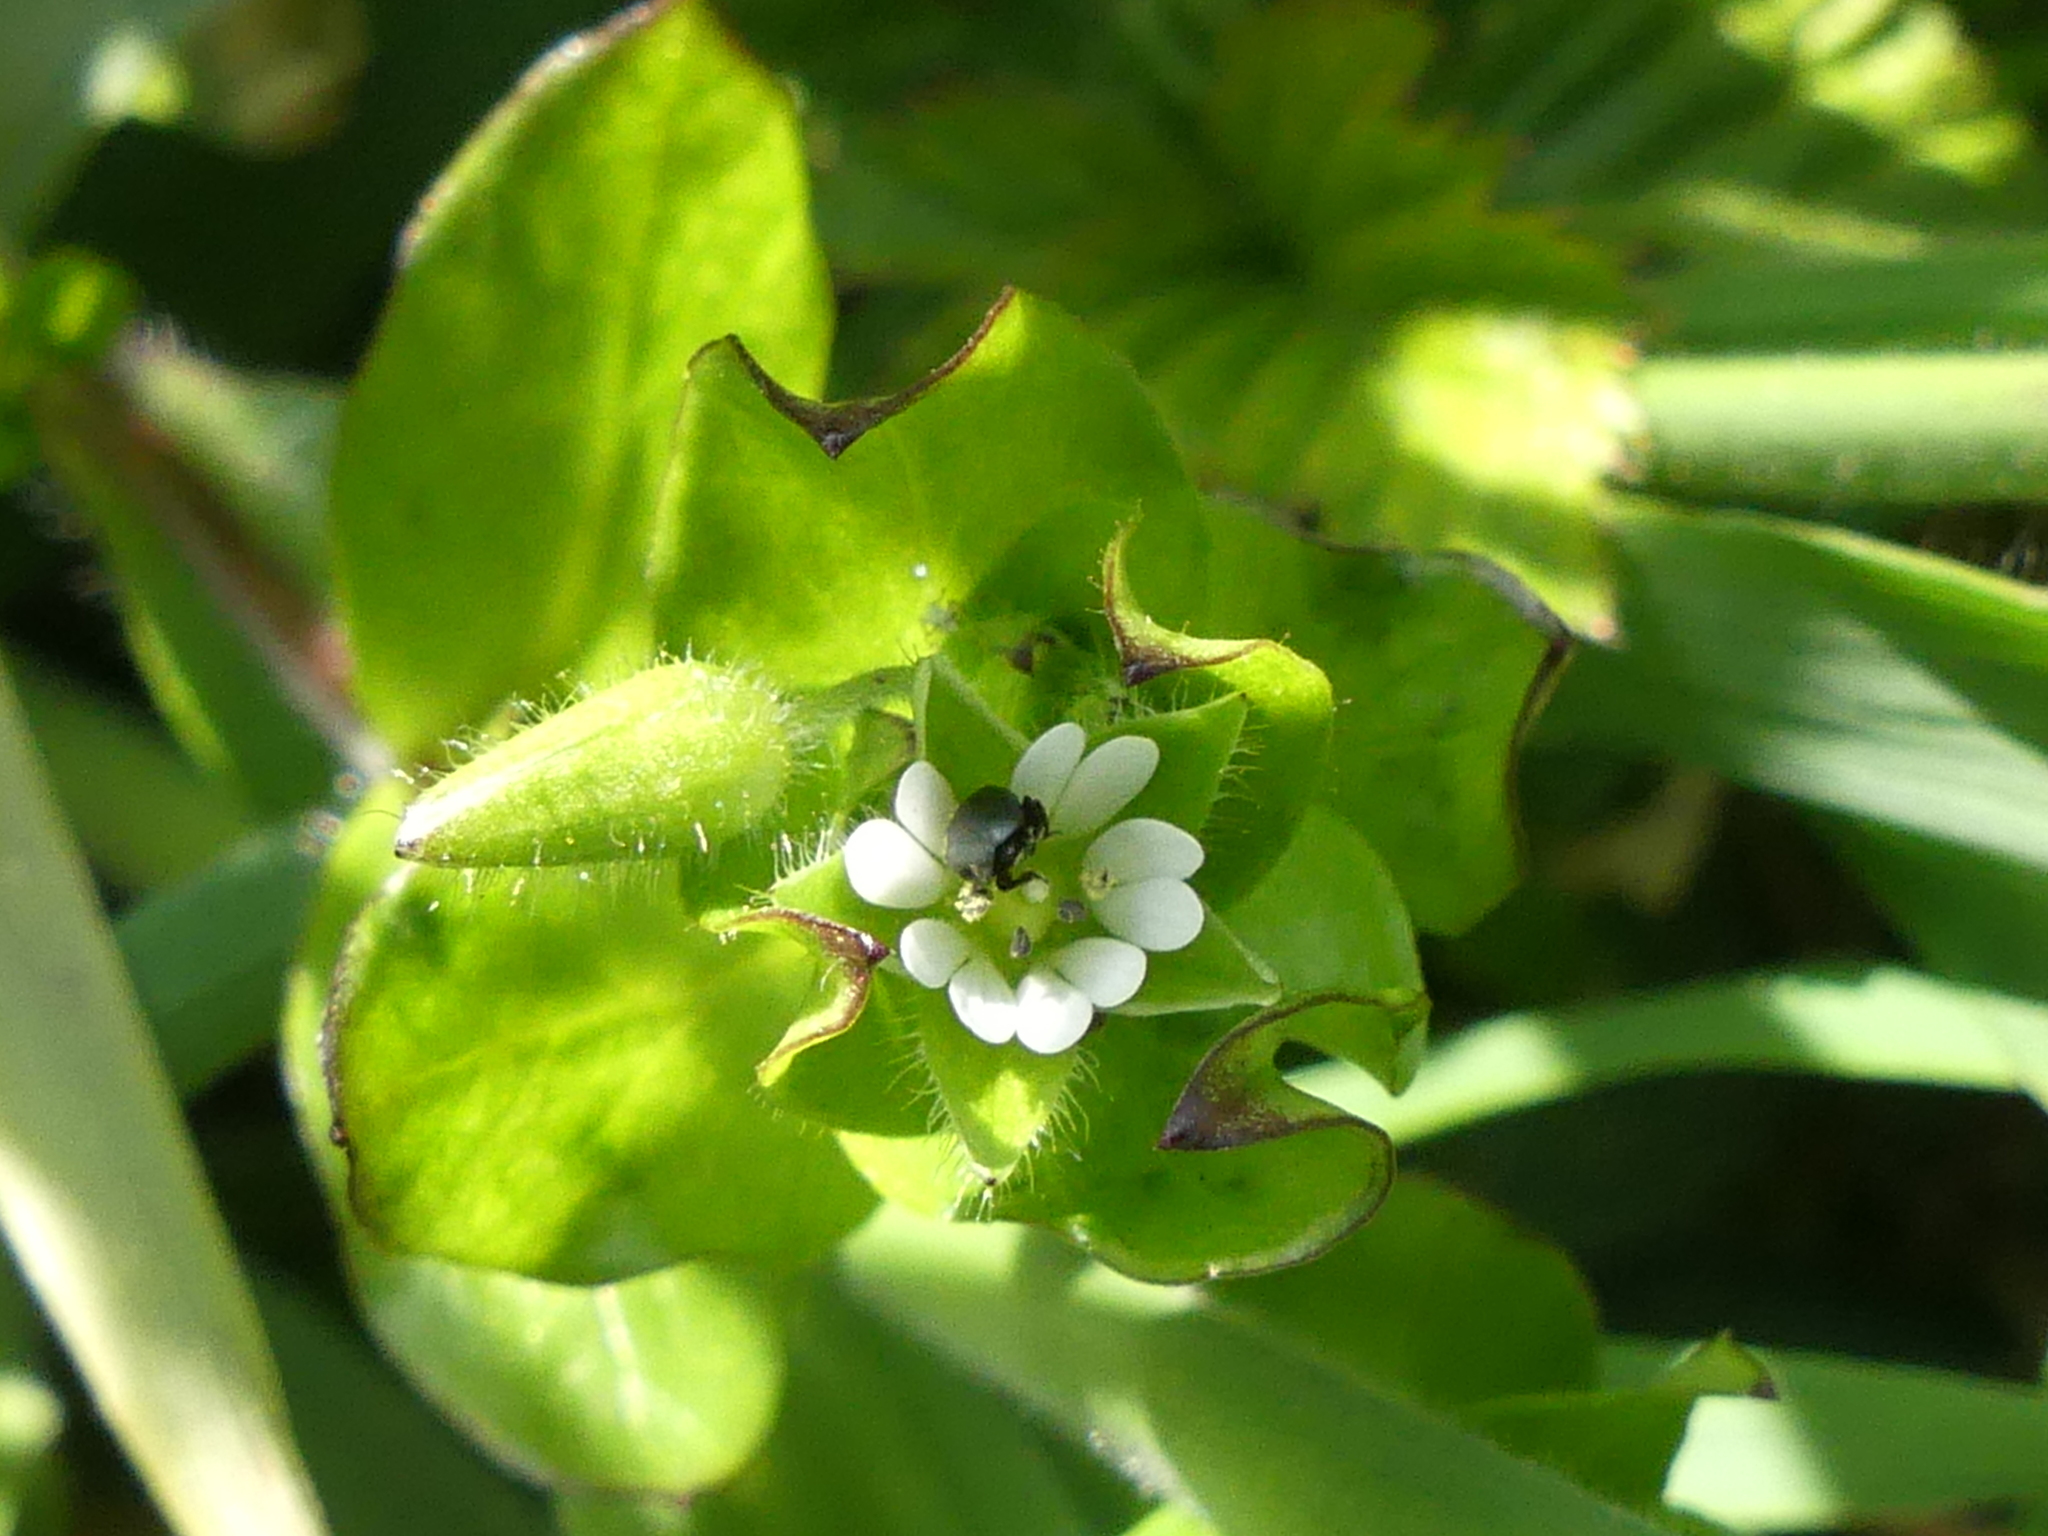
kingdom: Plantae
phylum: Tracheophyta
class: Magnoliopsida
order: Caryophyllales
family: Caryophyllaceae
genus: Stellaria
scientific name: Stellaria media
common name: Common chickweed
